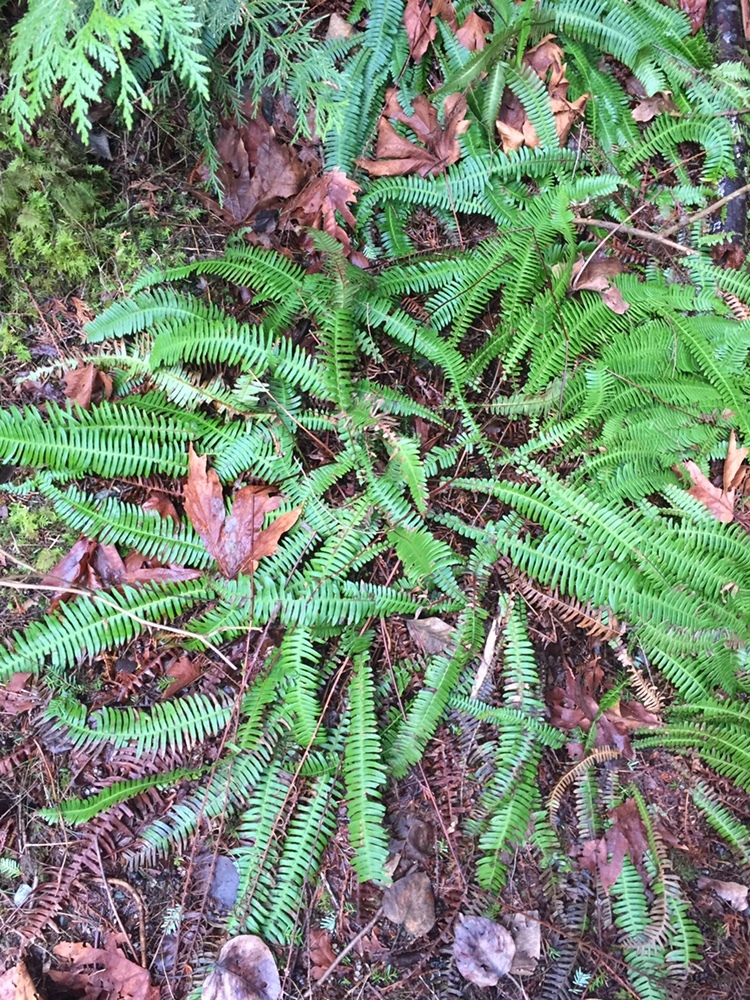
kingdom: Plantae
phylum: Tracheophyta
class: Polypodiopsida
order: Polypodiales
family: Blechnaceae
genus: Struthiopteris
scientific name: Struthiopteris spicant
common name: Deer fern
